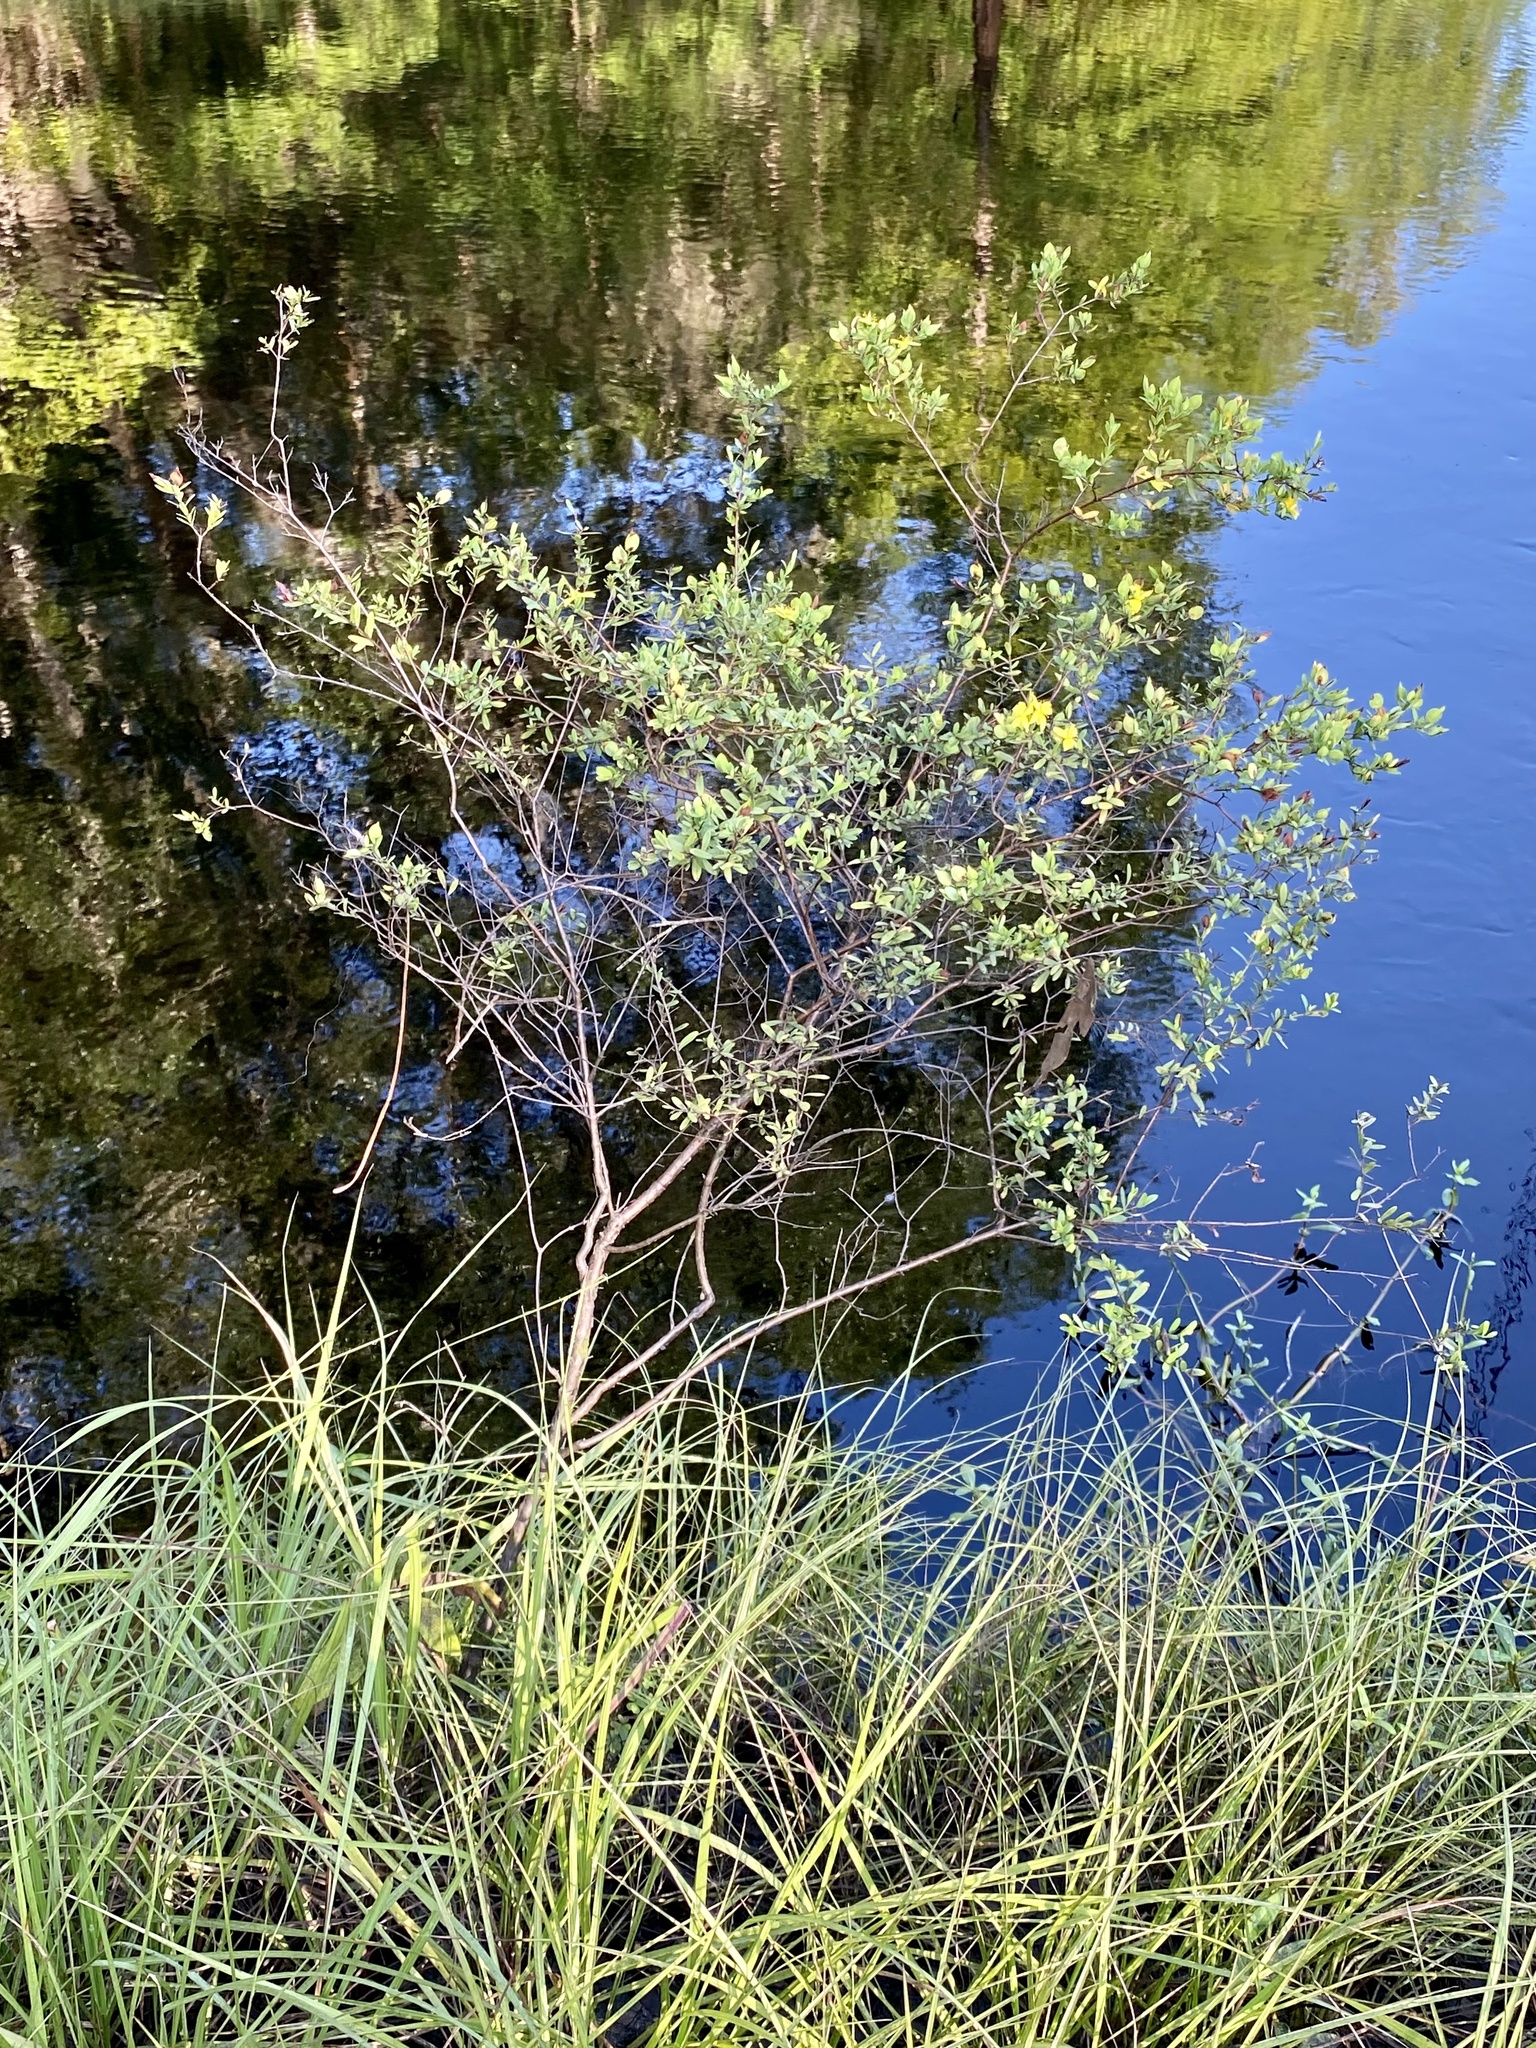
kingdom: Plantae
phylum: Tracheophyta
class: Magnoliopsida
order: Malpighiales
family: Hypericaceae
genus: Hypericum
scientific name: Hypericum hypericoides
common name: St. andrew's cross
